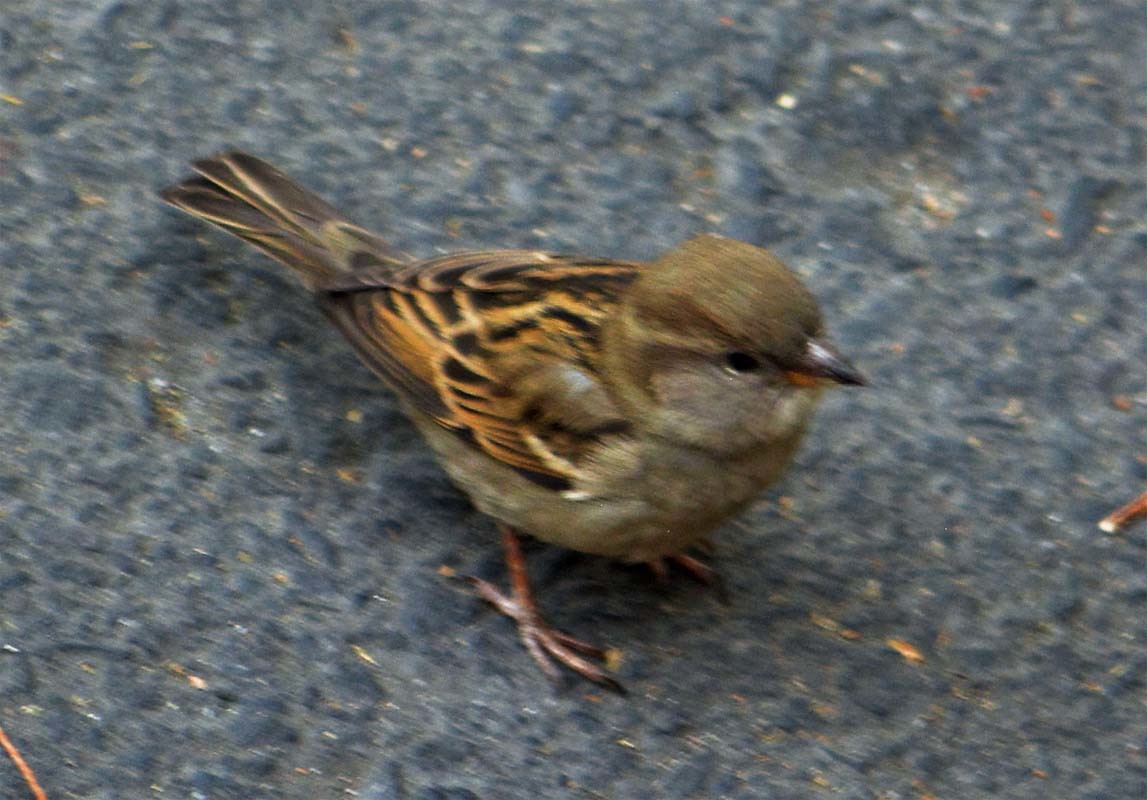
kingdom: Animalia
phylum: Chordata
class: Aves
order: Passeriformes
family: Passeridae
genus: Passer
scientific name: Passer domesticus
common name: House sparrow
